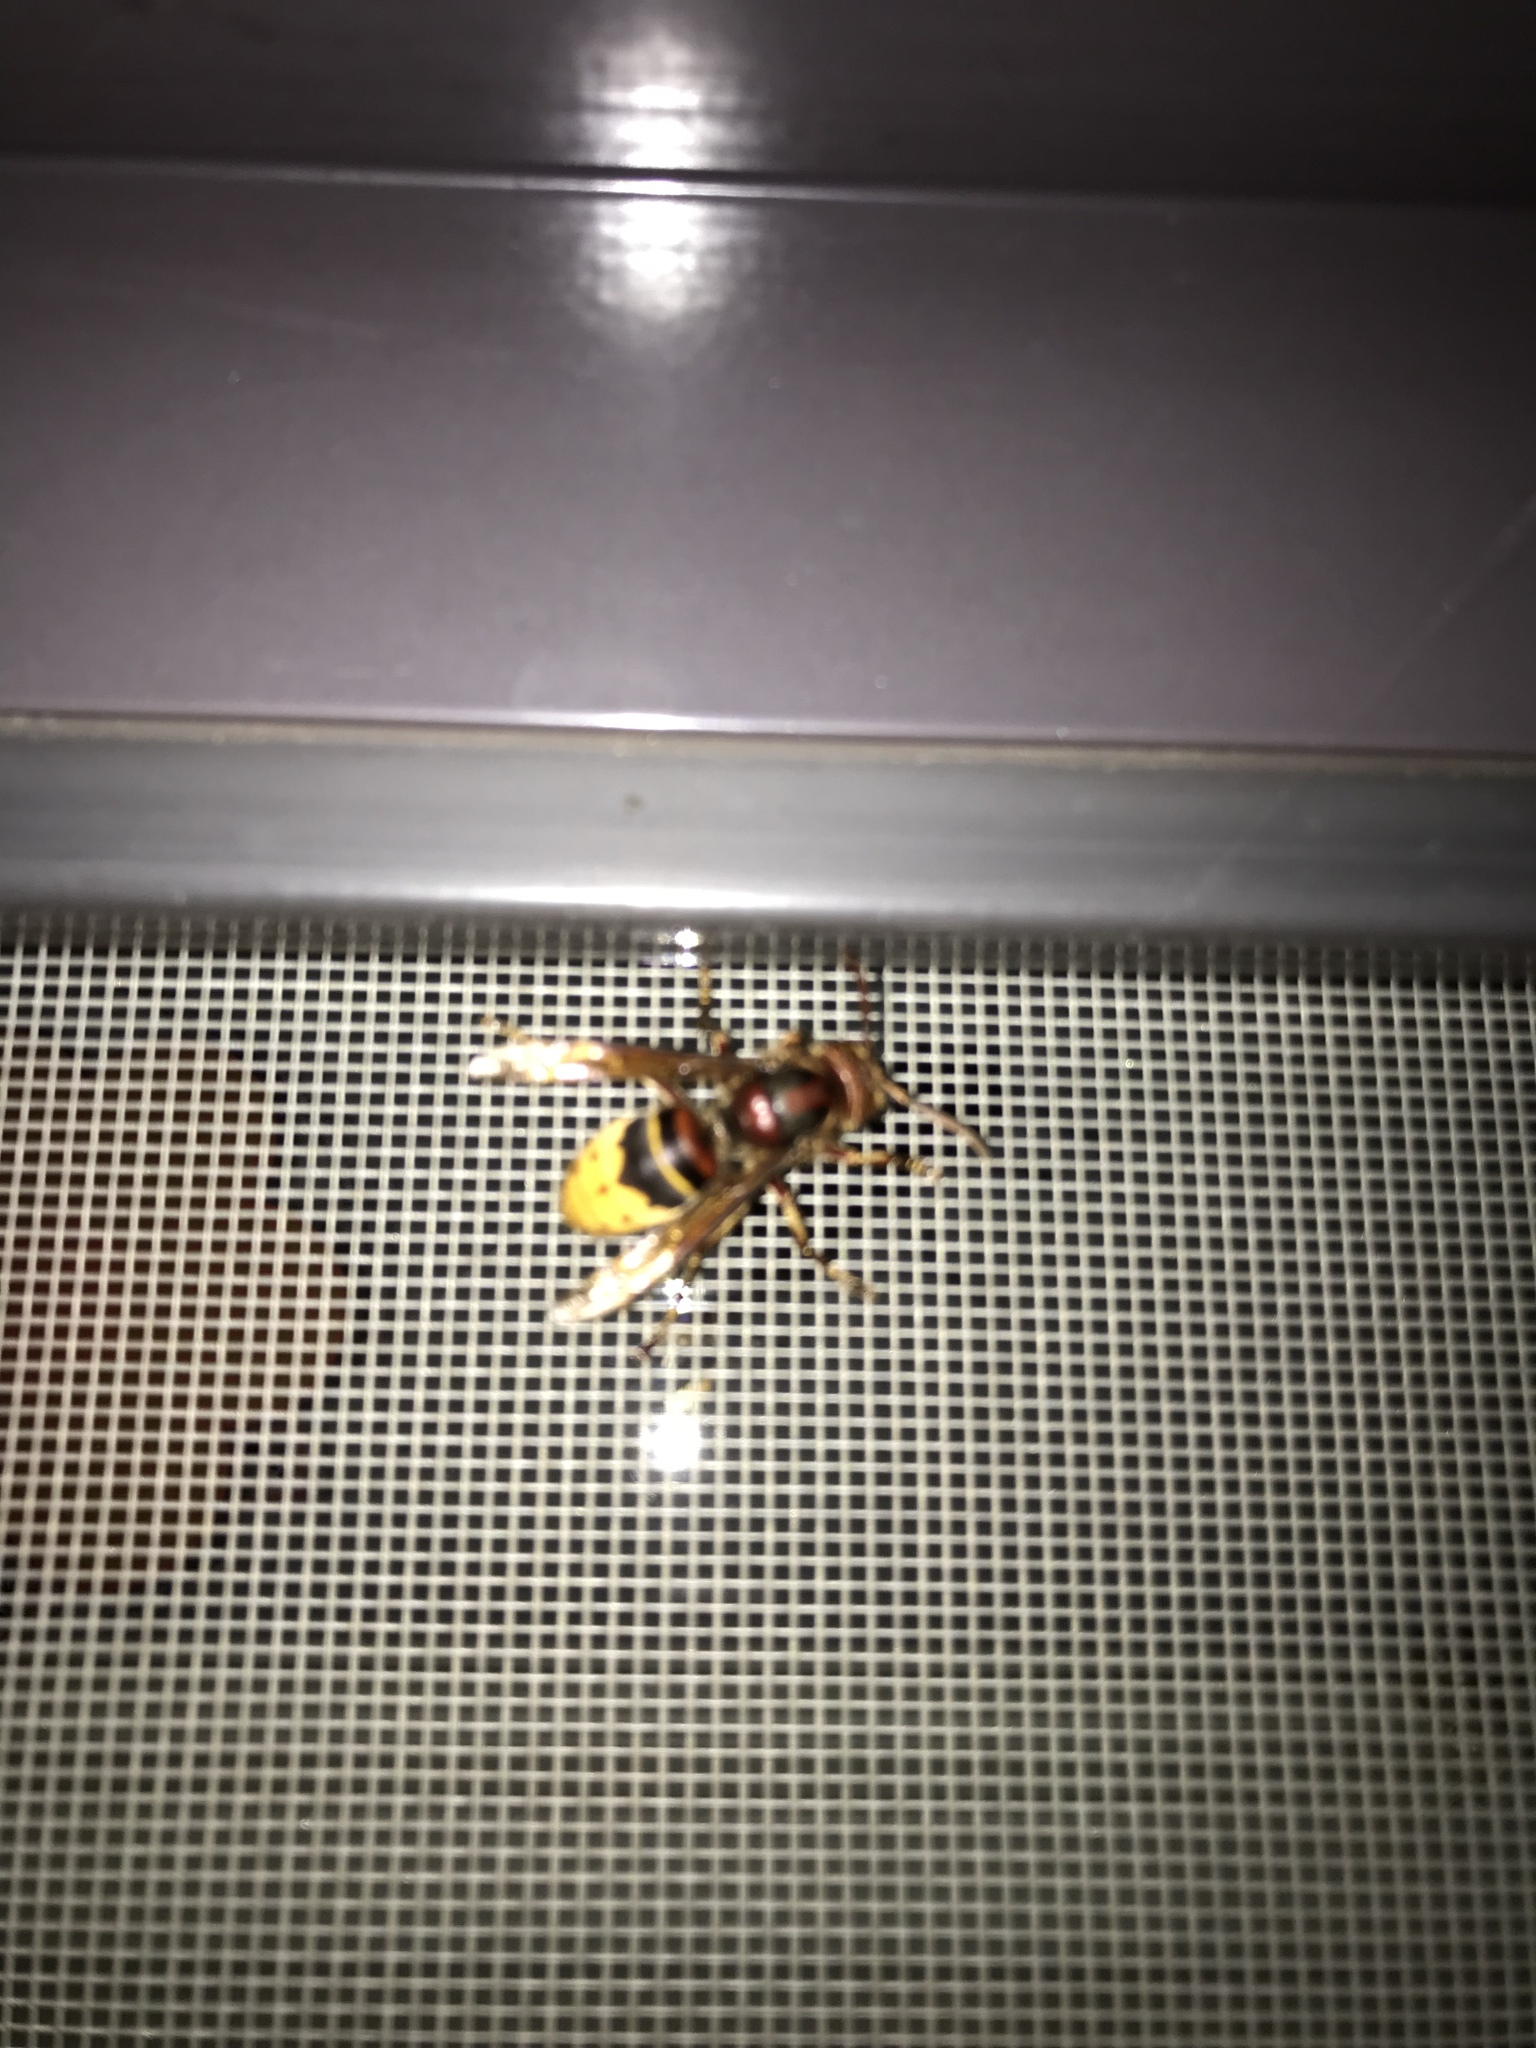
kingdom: Animalia
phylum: Arthropoda
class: Insecta
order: Hymenoptera
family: Vespidae
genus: Vespa
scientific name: Vespa crabro
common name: Hornet
